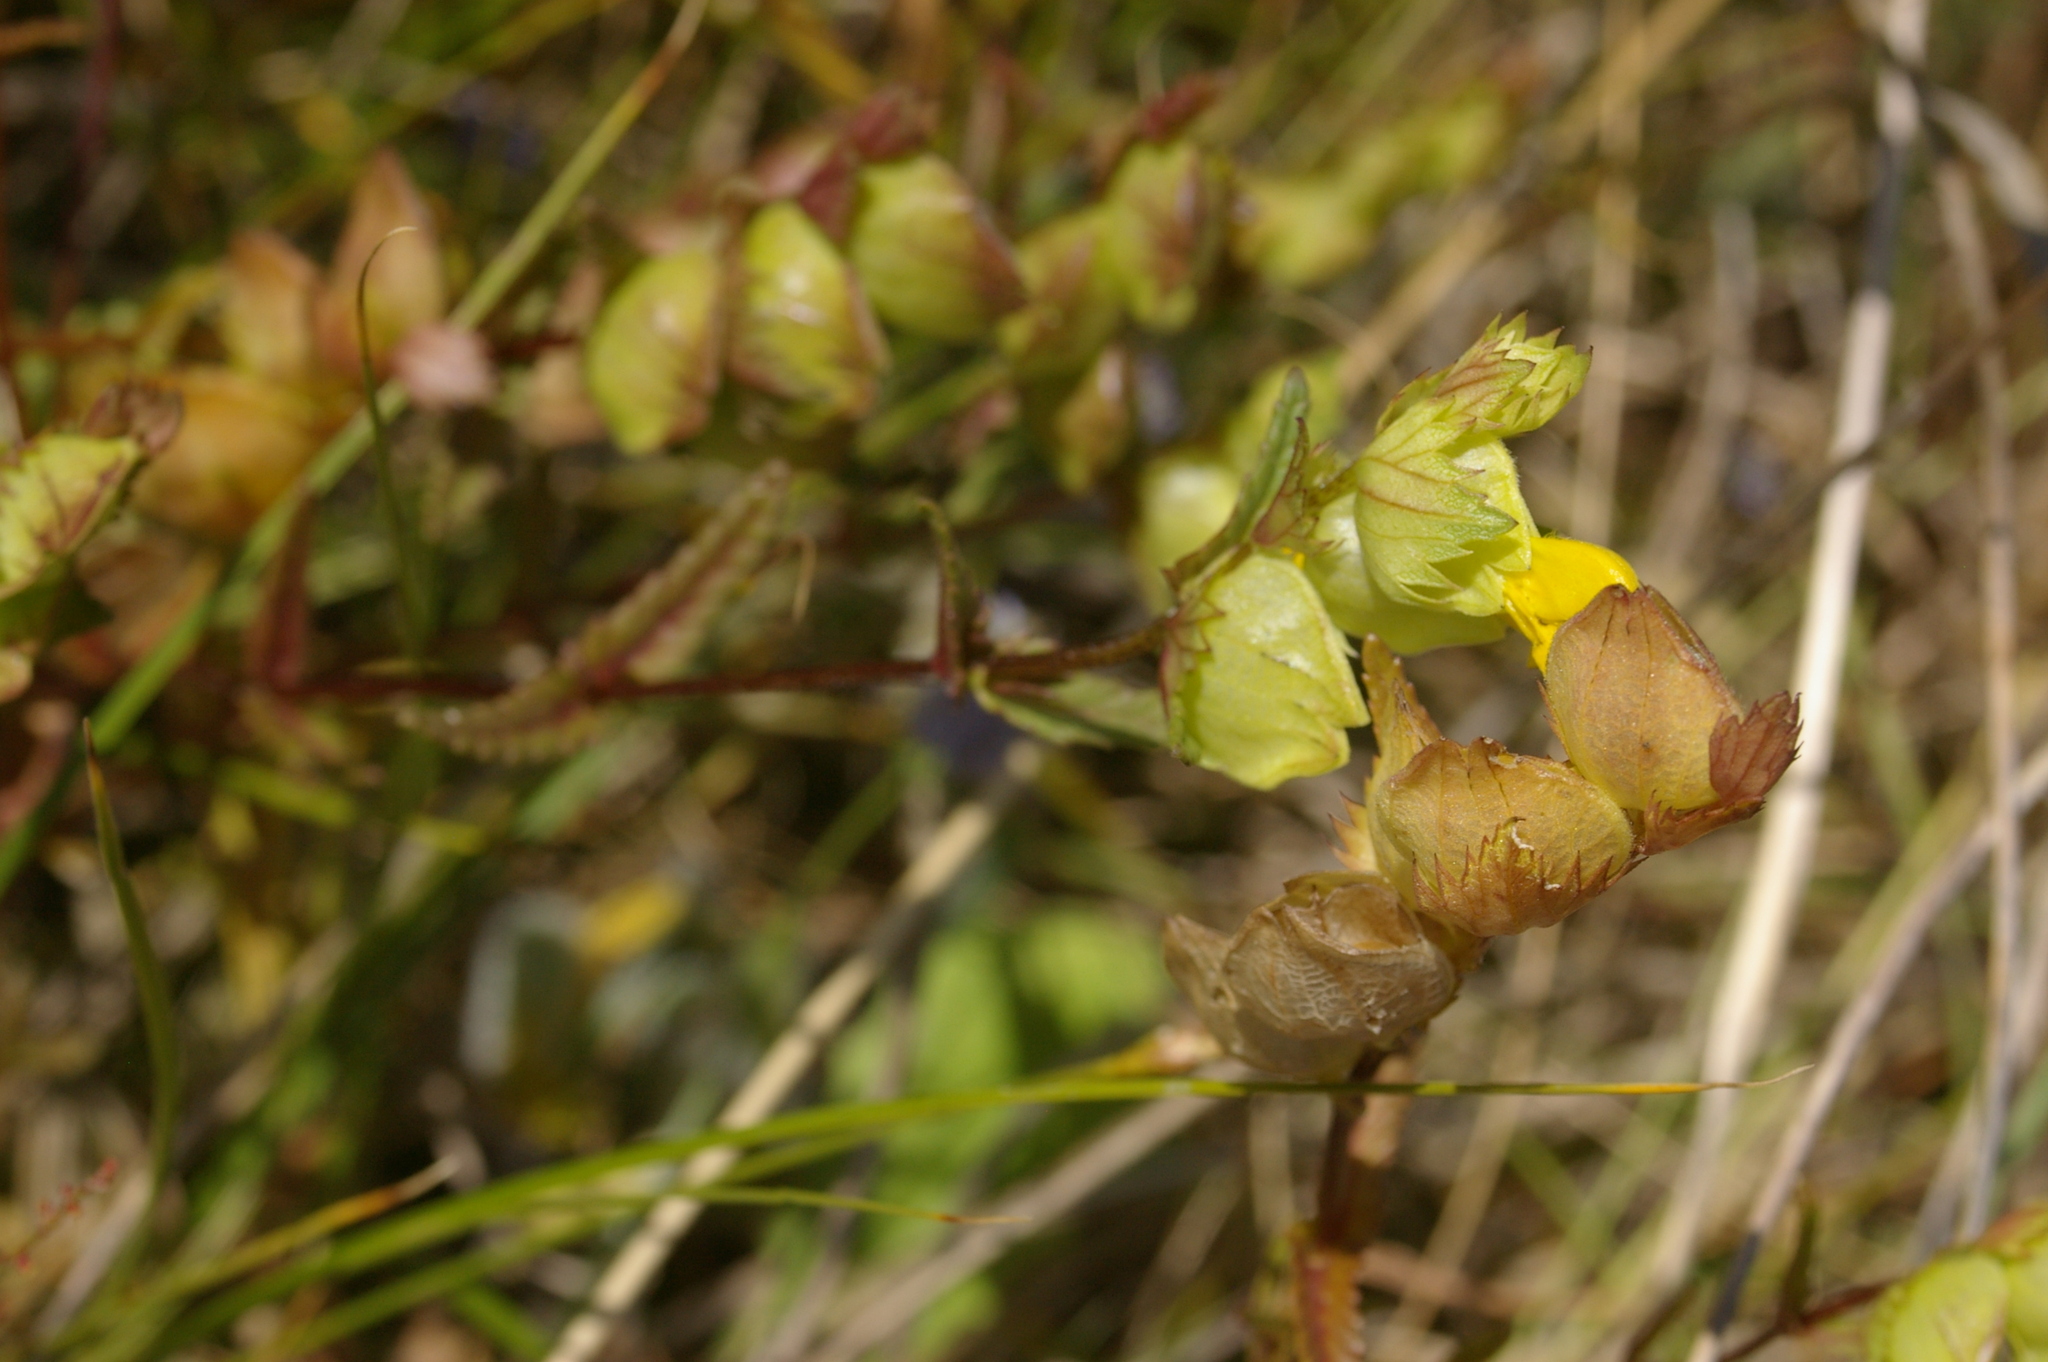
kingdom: Plantae
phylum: Tracheophyta
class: Magnoliopsida
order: Lamiales
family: Orobanchaceae
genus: Rhinanthus
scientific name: Rhinanthus minor
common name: Yellow-rattle
